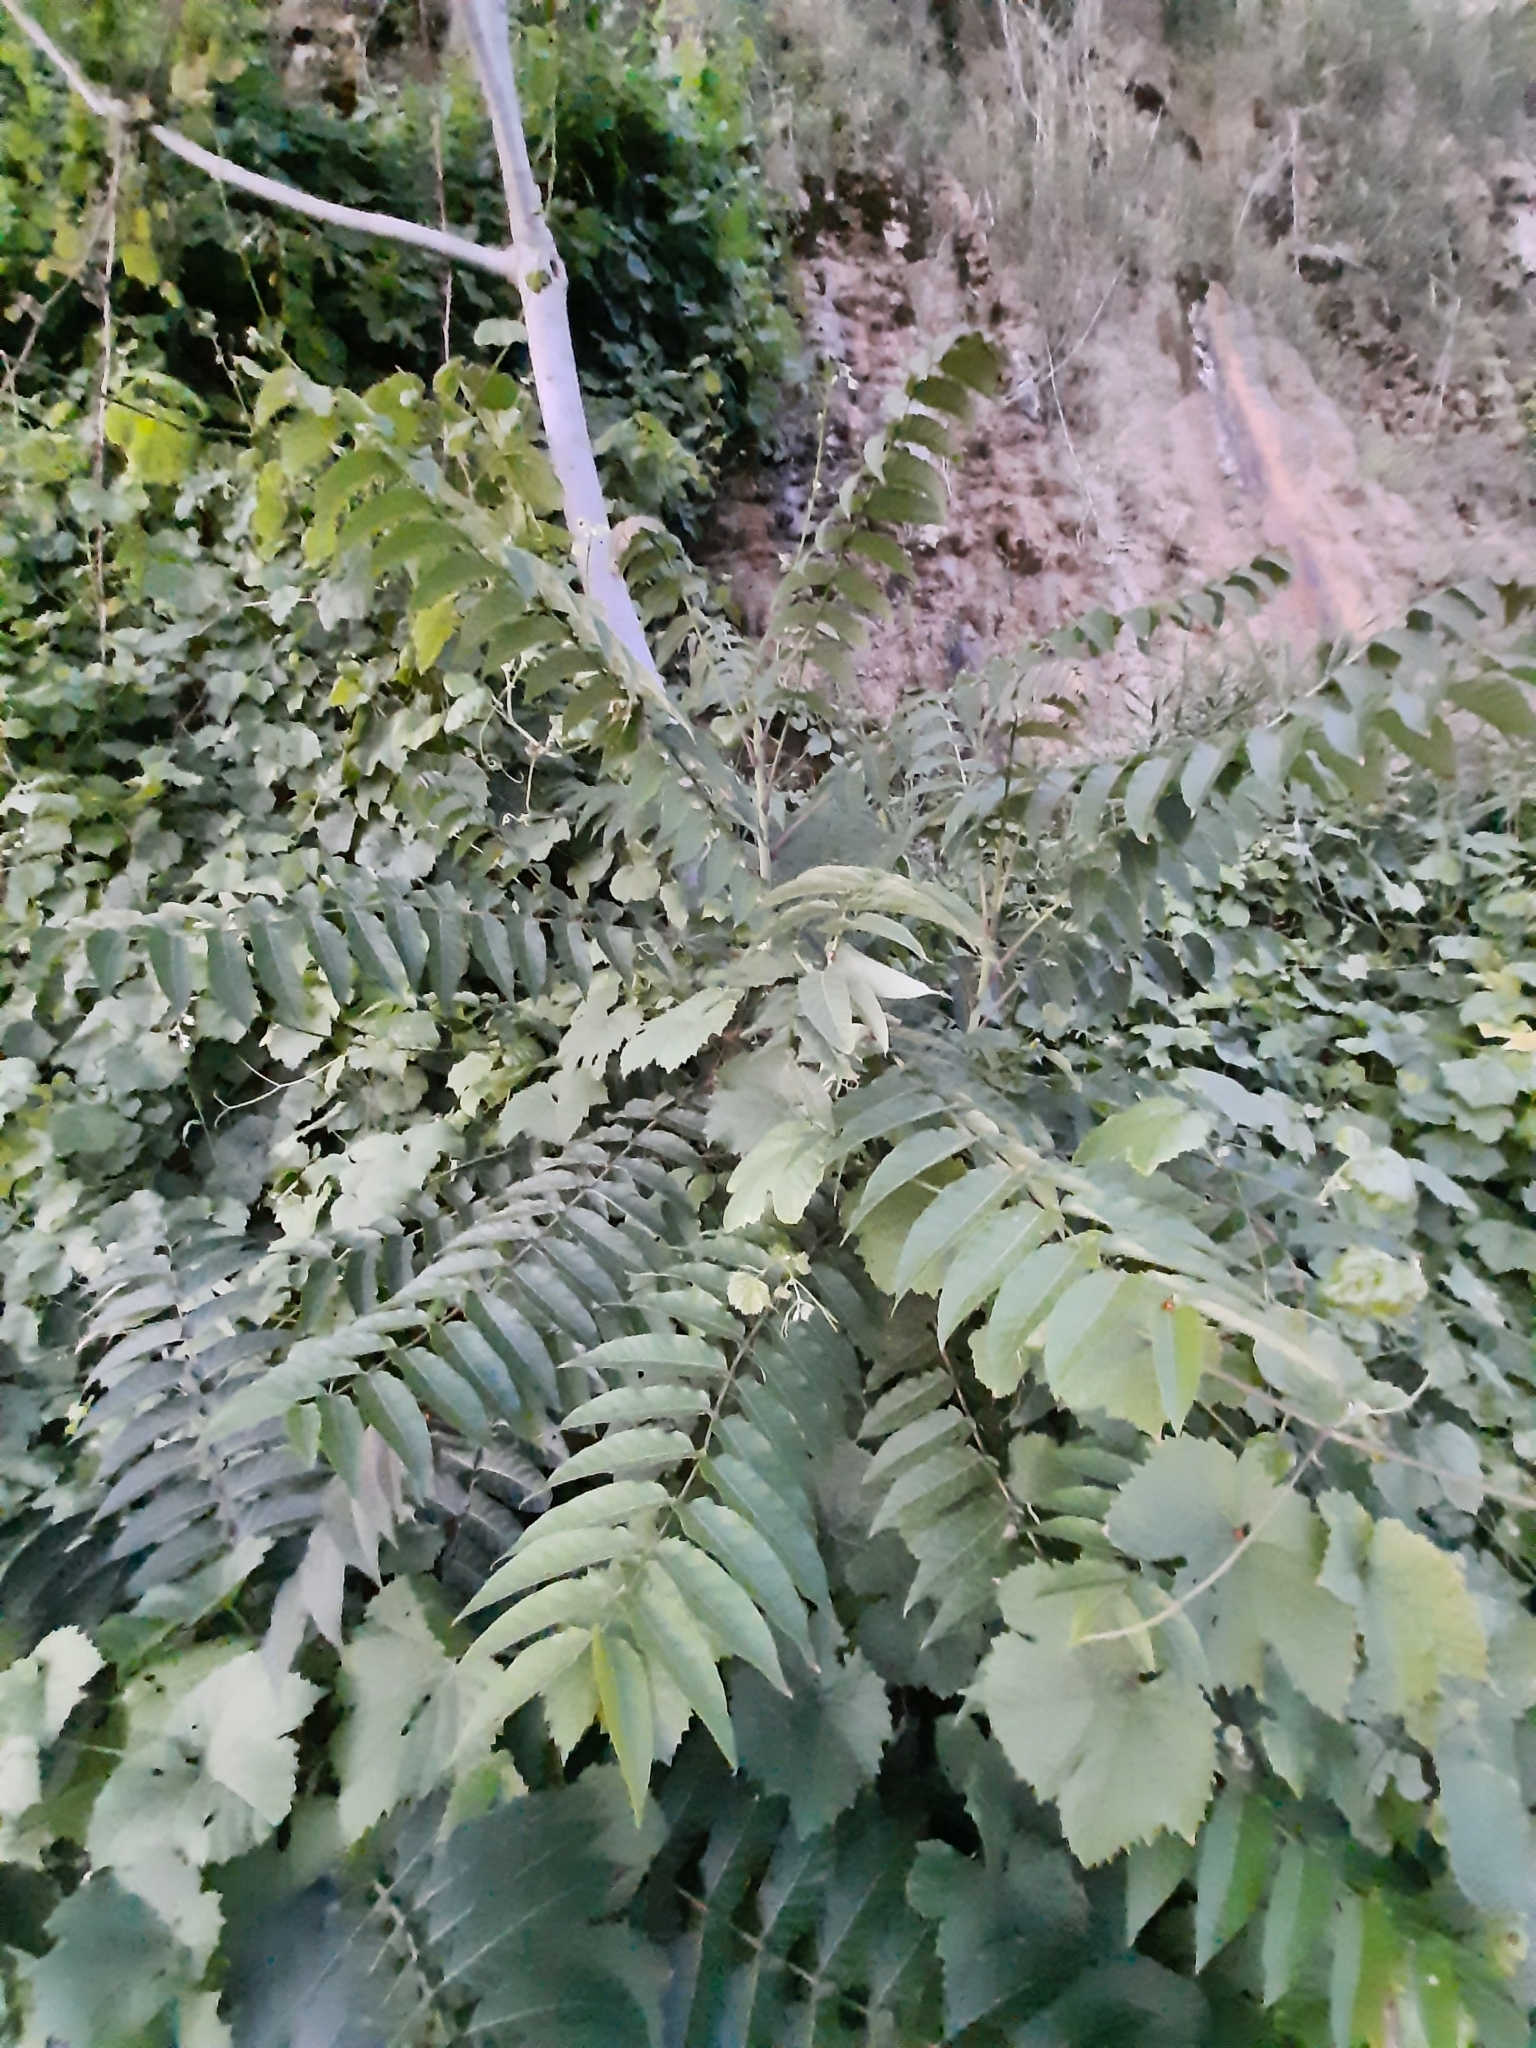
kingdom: Plantae
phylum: Tracheophyta
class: Magnoliopsida
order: Sapindales
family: Simaroubaceae
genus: Ailanthus
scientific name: Ailanthus altissima
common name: Tree-of-heaven
